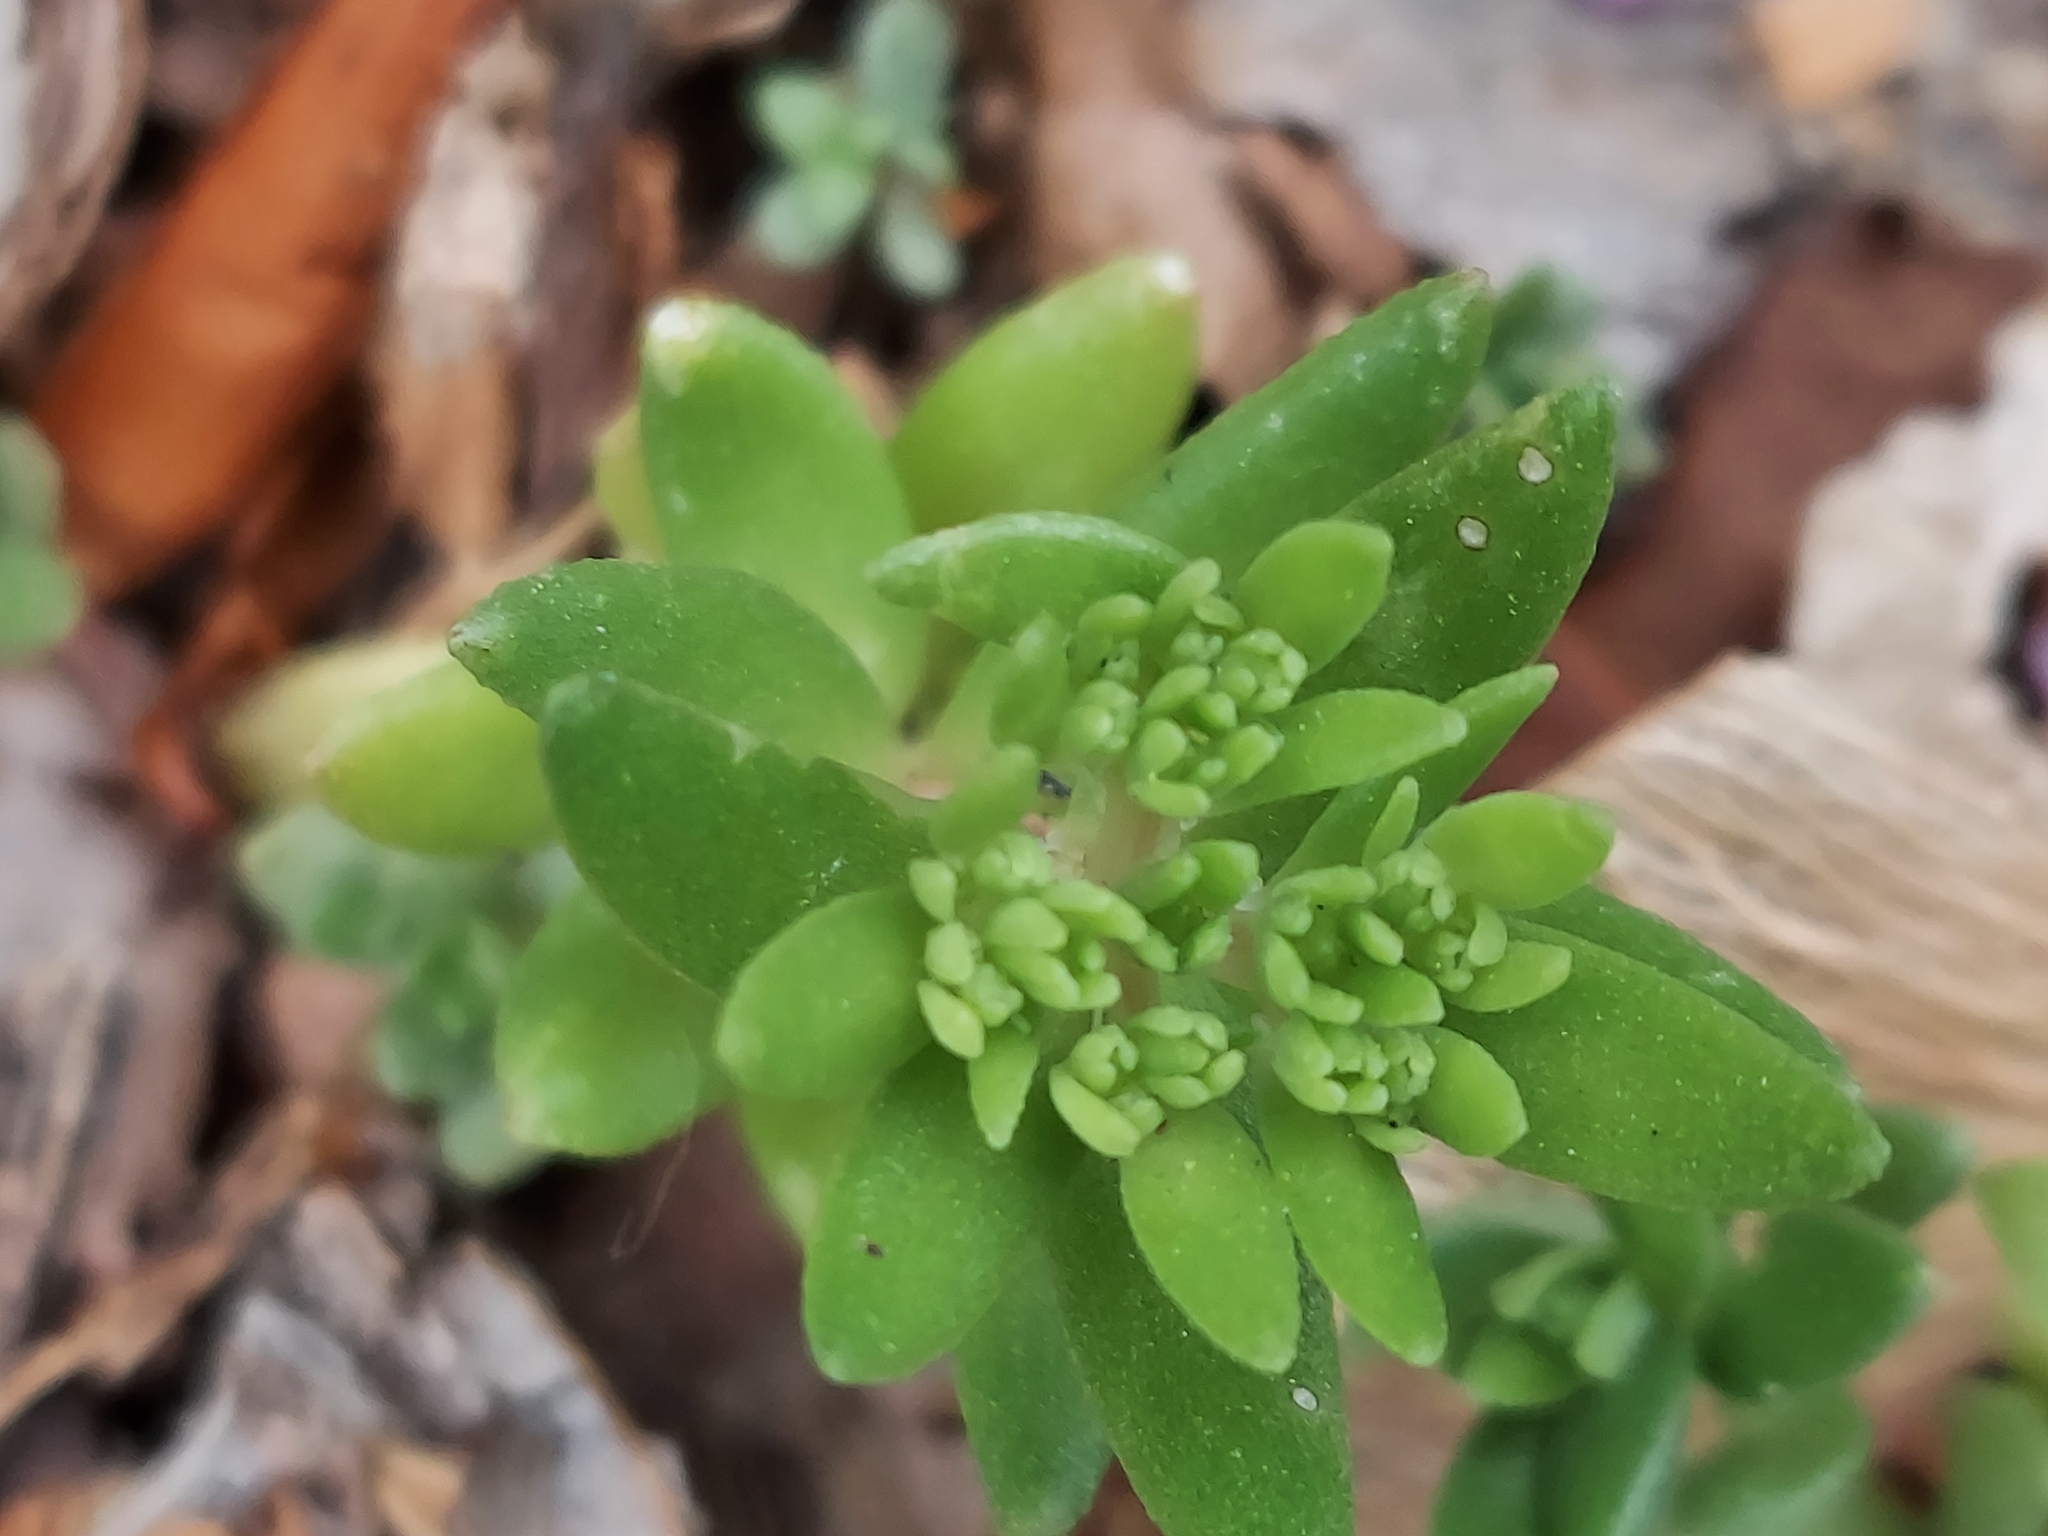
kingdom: Plantae
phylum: Tracheophyta
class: Magnoliopsida
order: Saxifragales
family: Crassulaceae
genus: Sedum
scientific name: Sedum sarmentosum
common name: Stringy stonecrop
